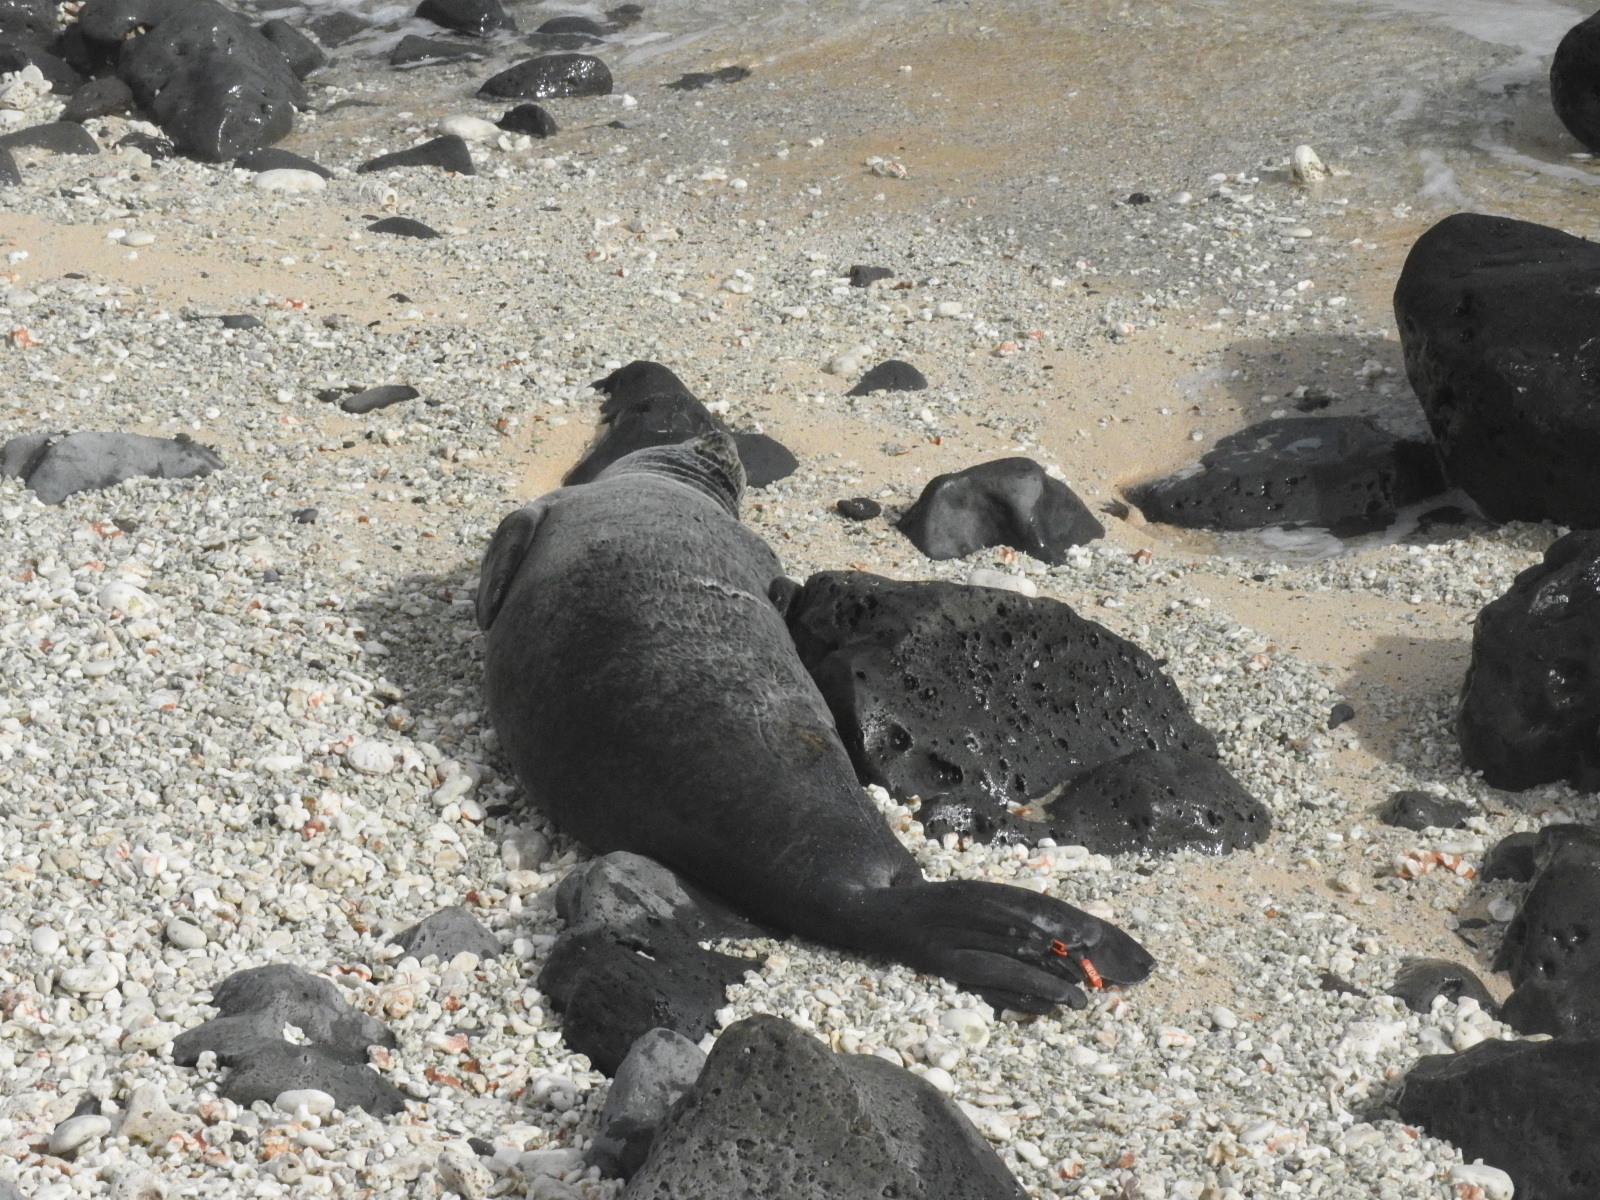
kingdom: Animalia
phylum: Chordata
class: Mammalia
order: Carnivora
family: Phocidae
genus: Neomonachus
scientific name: Neomonachus schauinslandi
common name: Hawaiian monk seal
